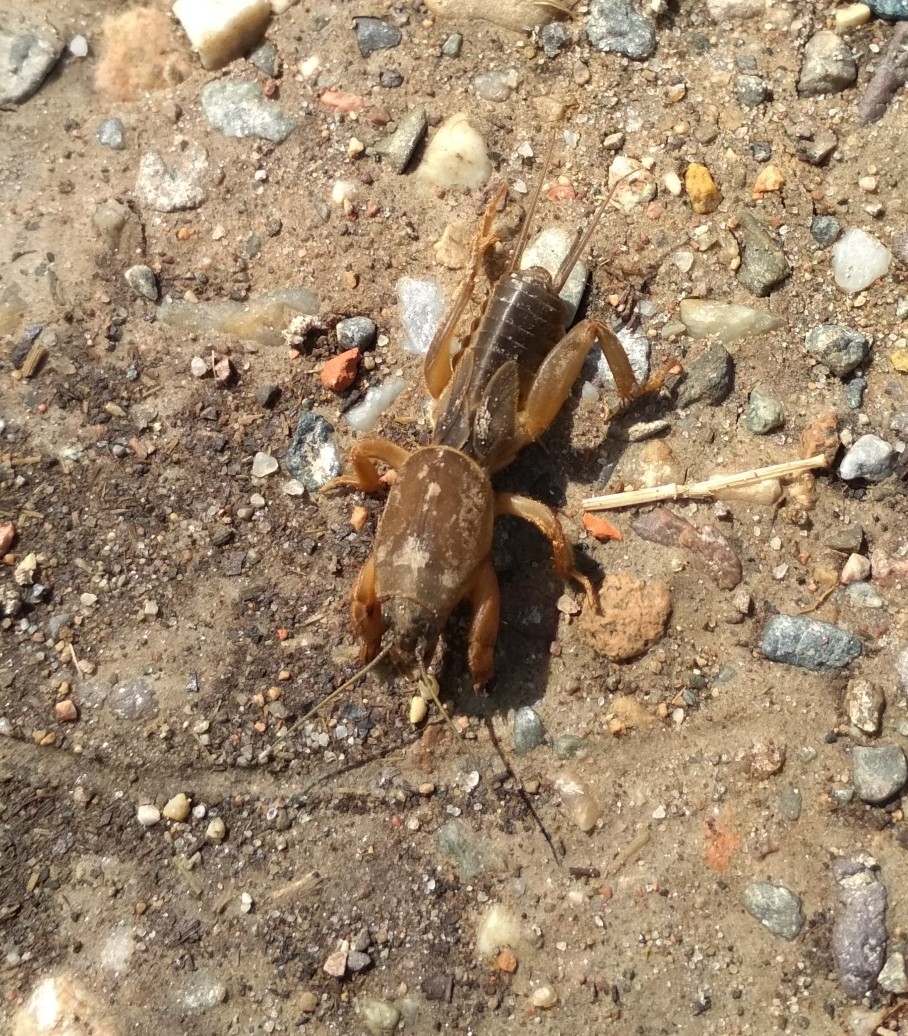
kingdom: Animalia
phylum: Arthropoda
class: Insecta
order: Orthoptera
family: Gryllotalpidae
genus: Gryllotalpa
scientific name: Gryllotalpa gryllotalpa
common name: European mole cricket
